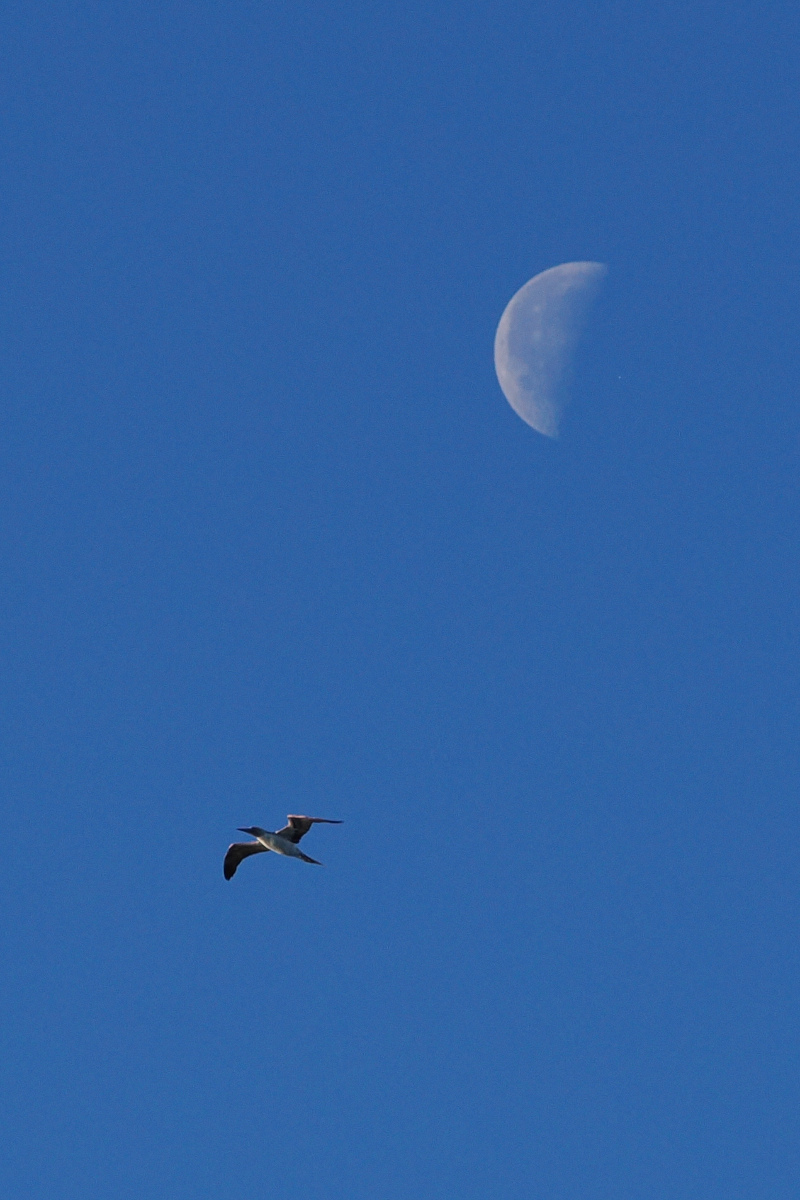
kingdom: Animalia
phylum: Chordata
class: Aves
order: Suliformes
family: Sulidae
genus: Sula
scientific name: Sula nebouxii
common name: Blue-footed booby
